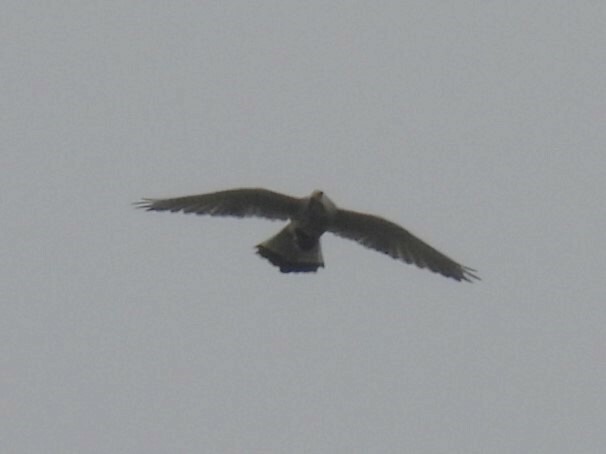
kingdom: Animalia
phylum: Chordata
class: Aves
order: Falconiformes
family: Falconidae
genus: Falco
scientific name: Falco tinnunculus
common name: Common kestrel
